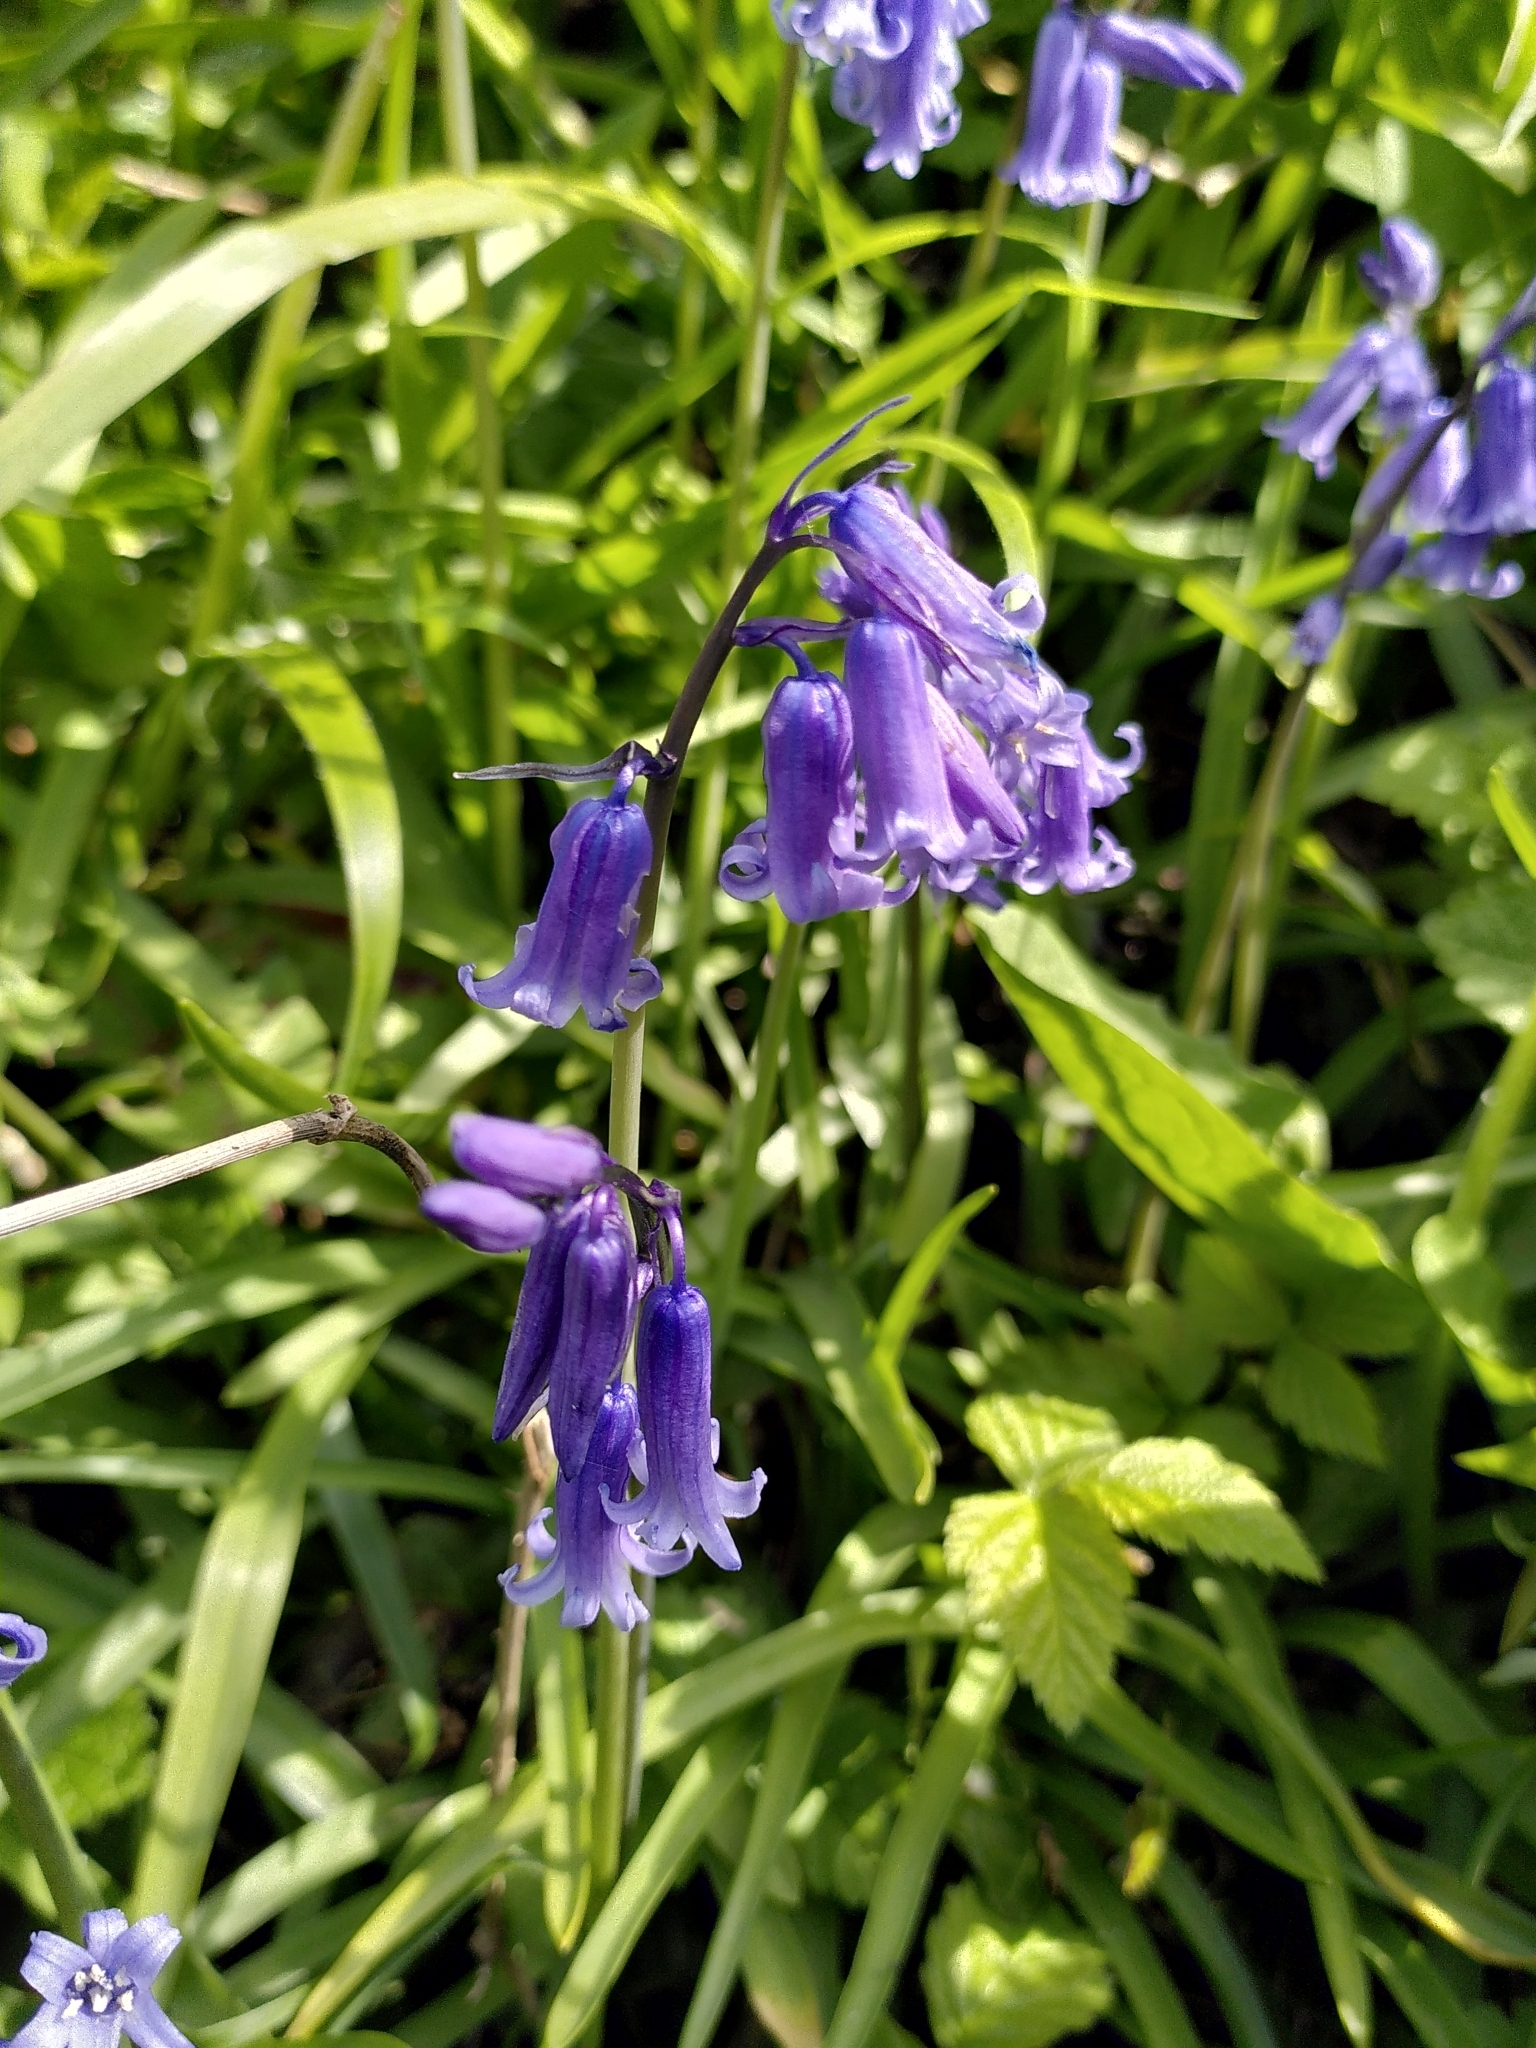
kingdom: Plantae
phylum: Tracheophyta
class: Liliopsida
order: Asparagales
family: Asparagaceae
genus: Hyacinthoides
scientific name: Hyacinthoides non-scripta
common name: Bluebell
